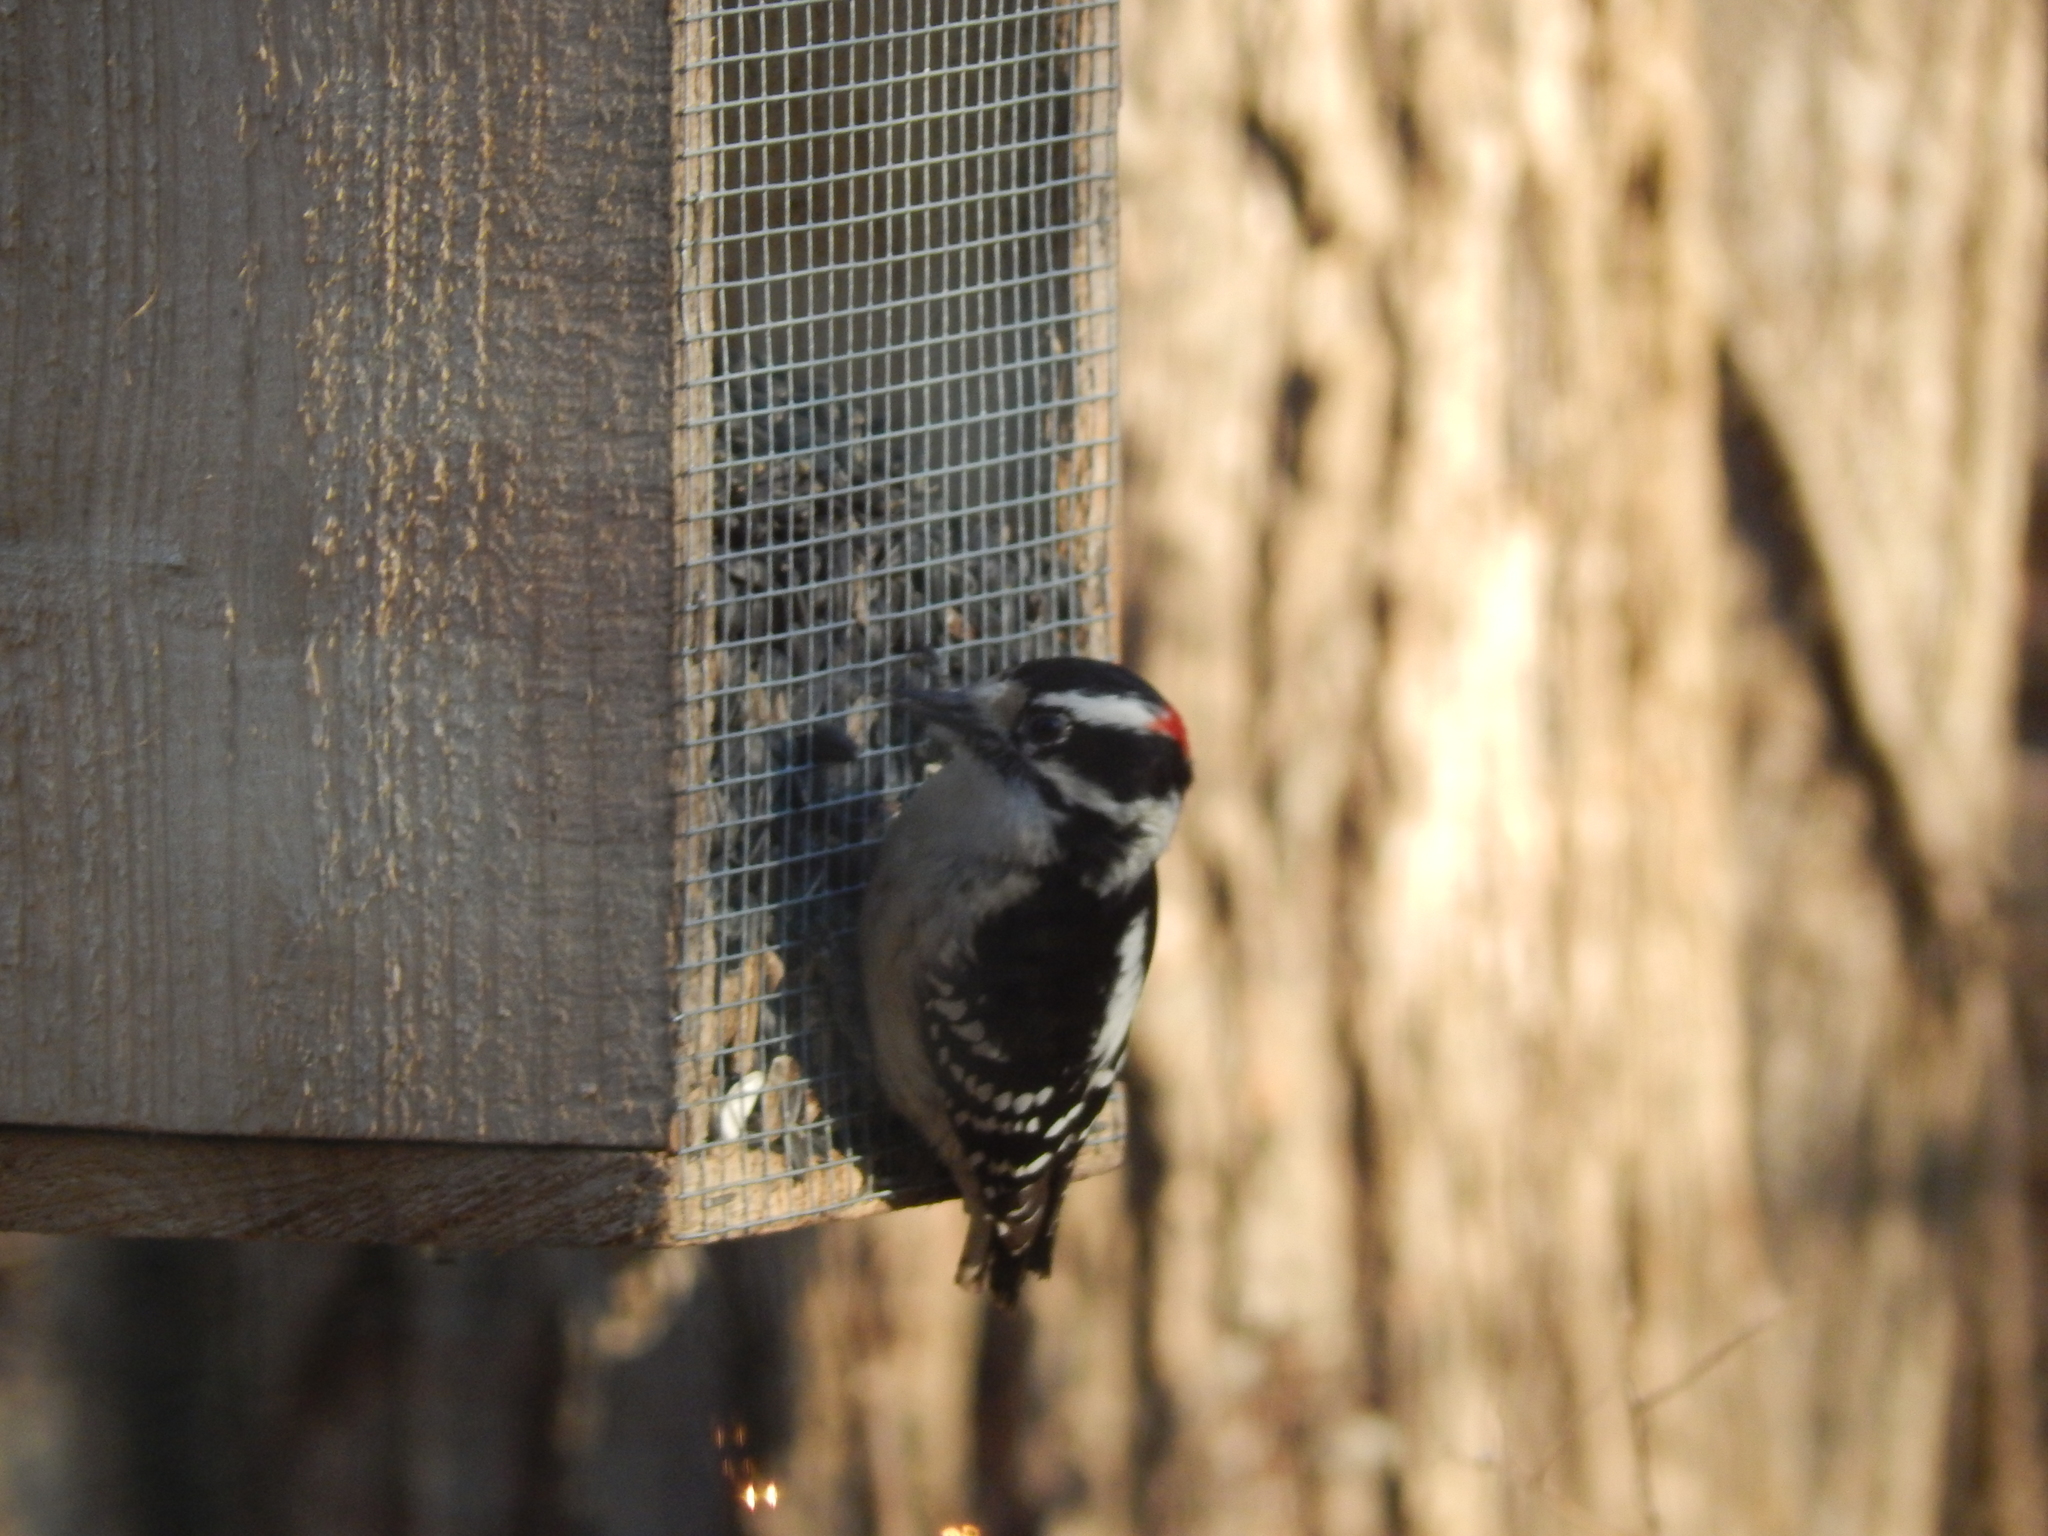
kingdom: Animalia
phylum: Chordata
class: Aves
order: Piciformes
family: Picidae
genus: Dryobates
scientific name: Dryobates pubescens
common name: Downy woodpecker
